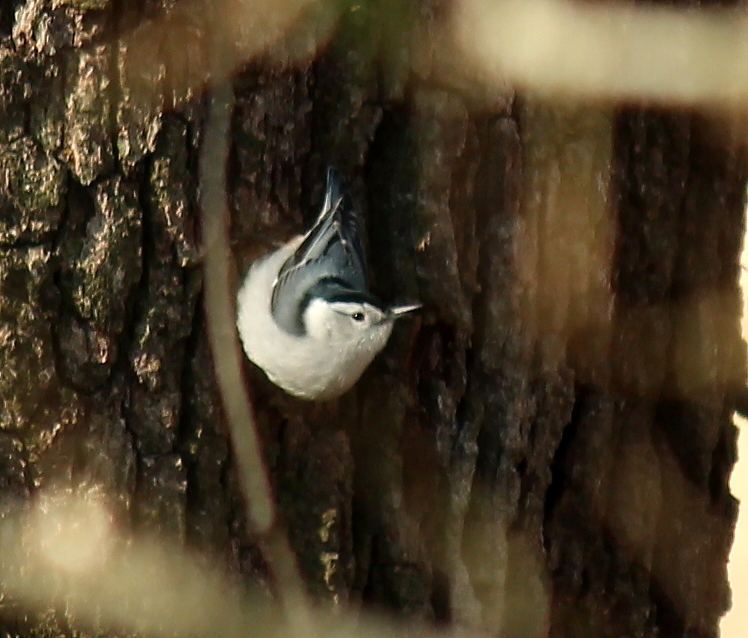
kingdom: Animalia
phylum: Chordata
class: Aves
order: Passeriformes
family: Sittidae
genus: Sitta
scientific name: Sitta carolinensis
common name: White-breasted nuthatch
